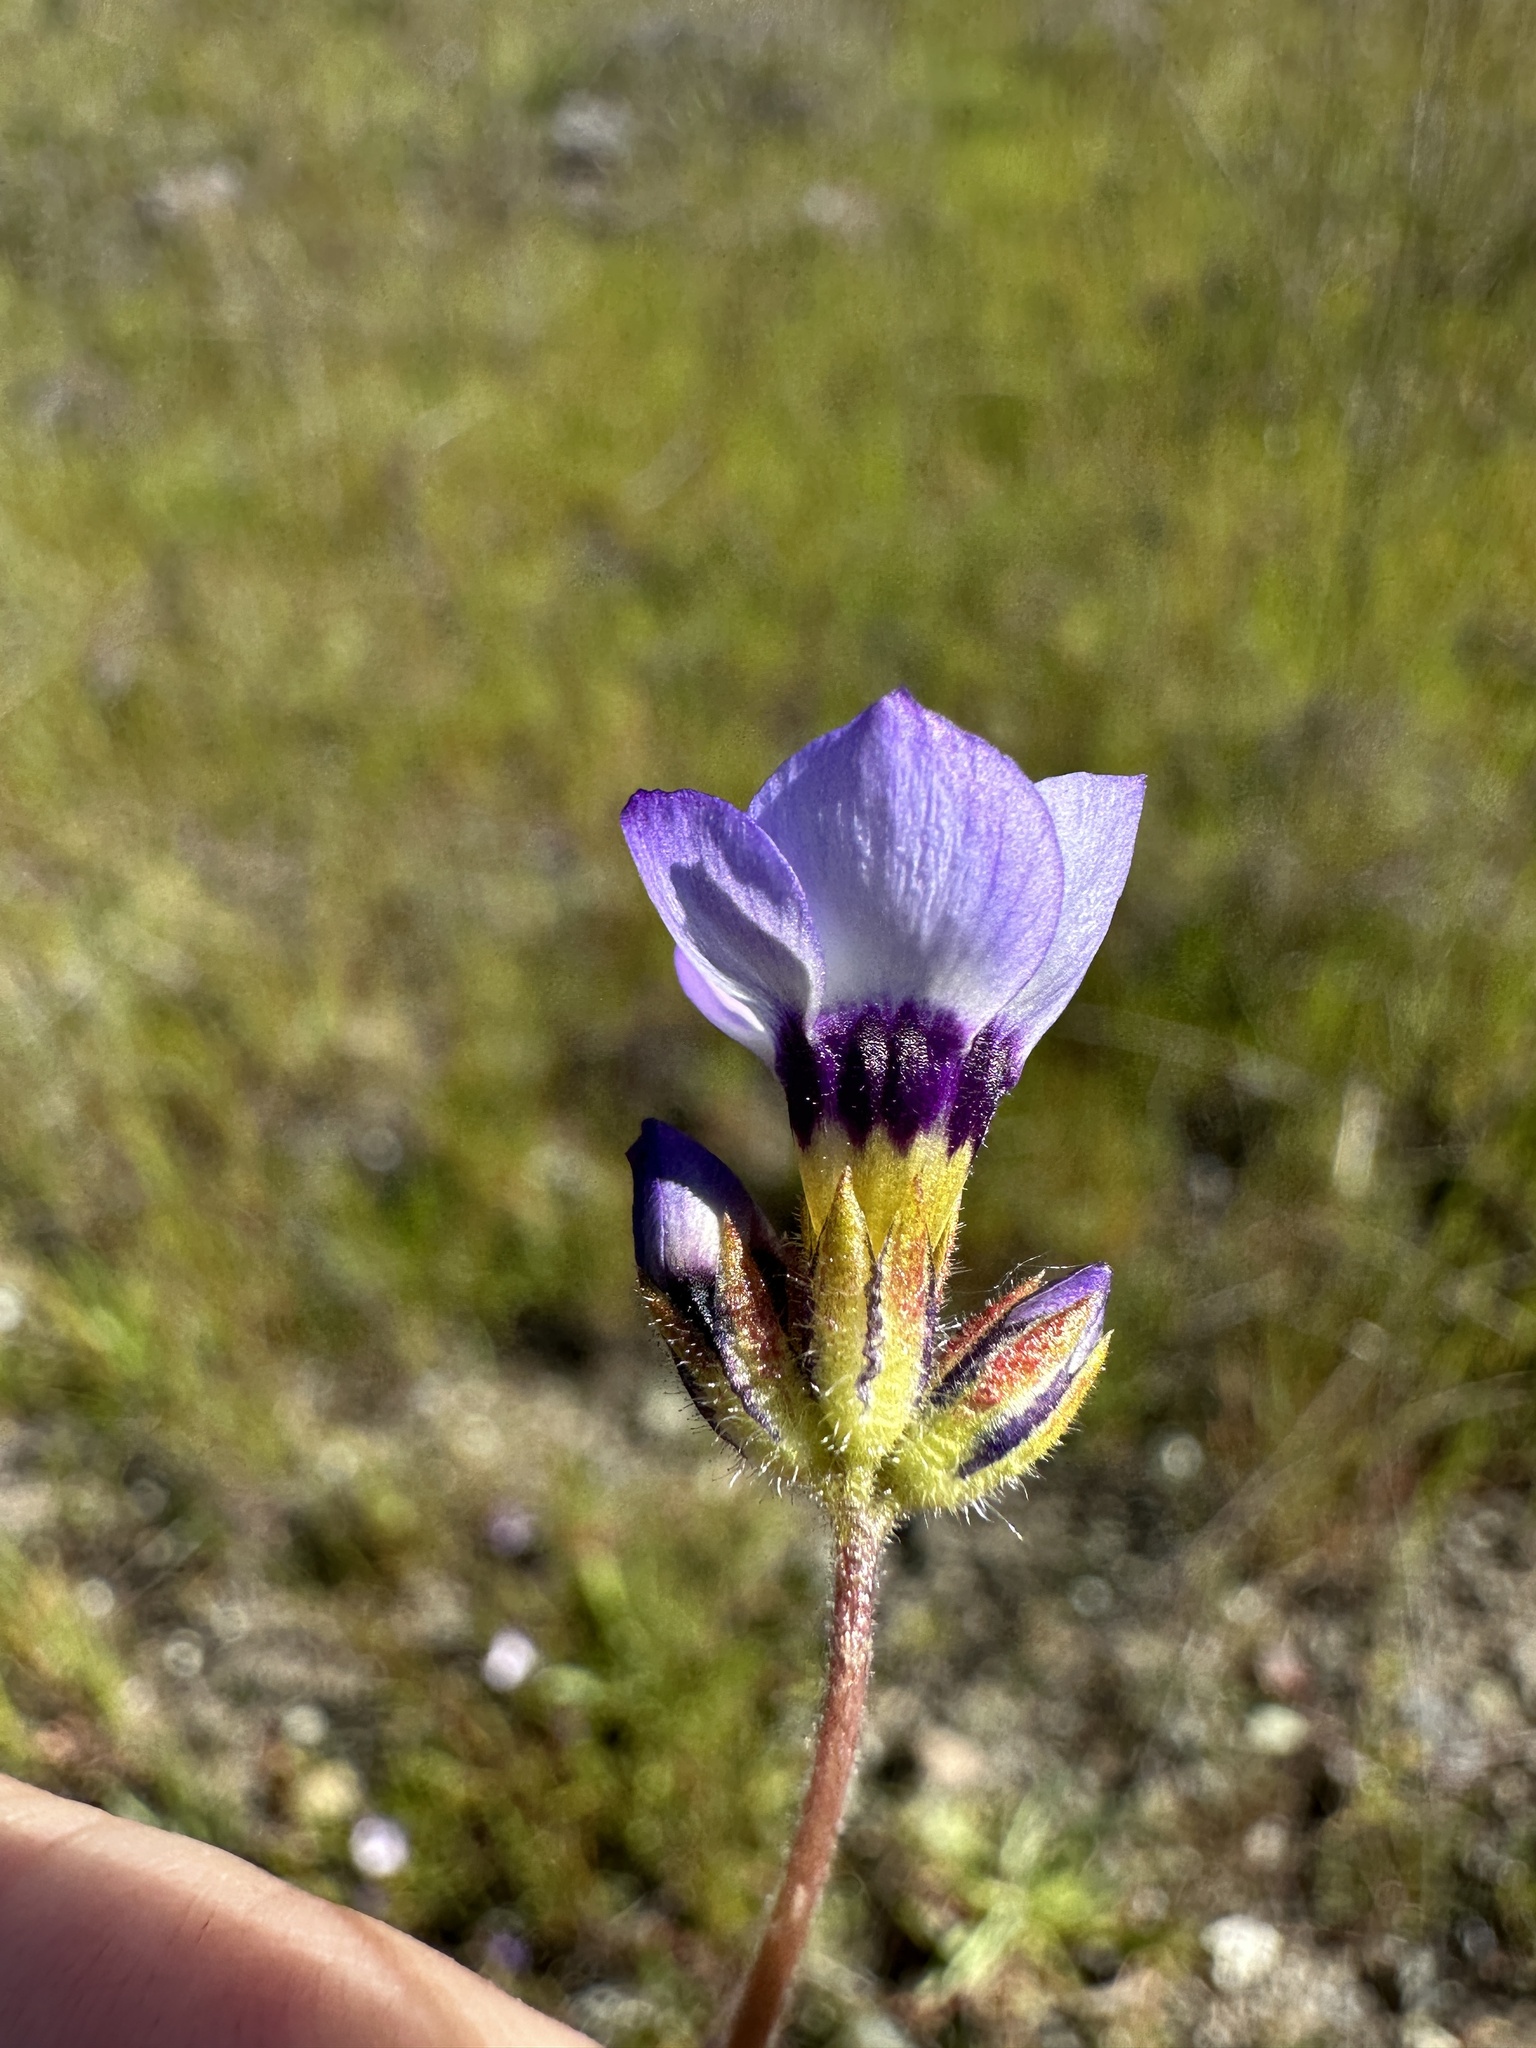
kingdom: Plantae
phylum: Tracheophyta
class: Magnoliopsida
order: Ericales
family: Polemoniaceae
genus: Gilia
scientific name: Gilia tricolor
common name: Bird's-eyes
